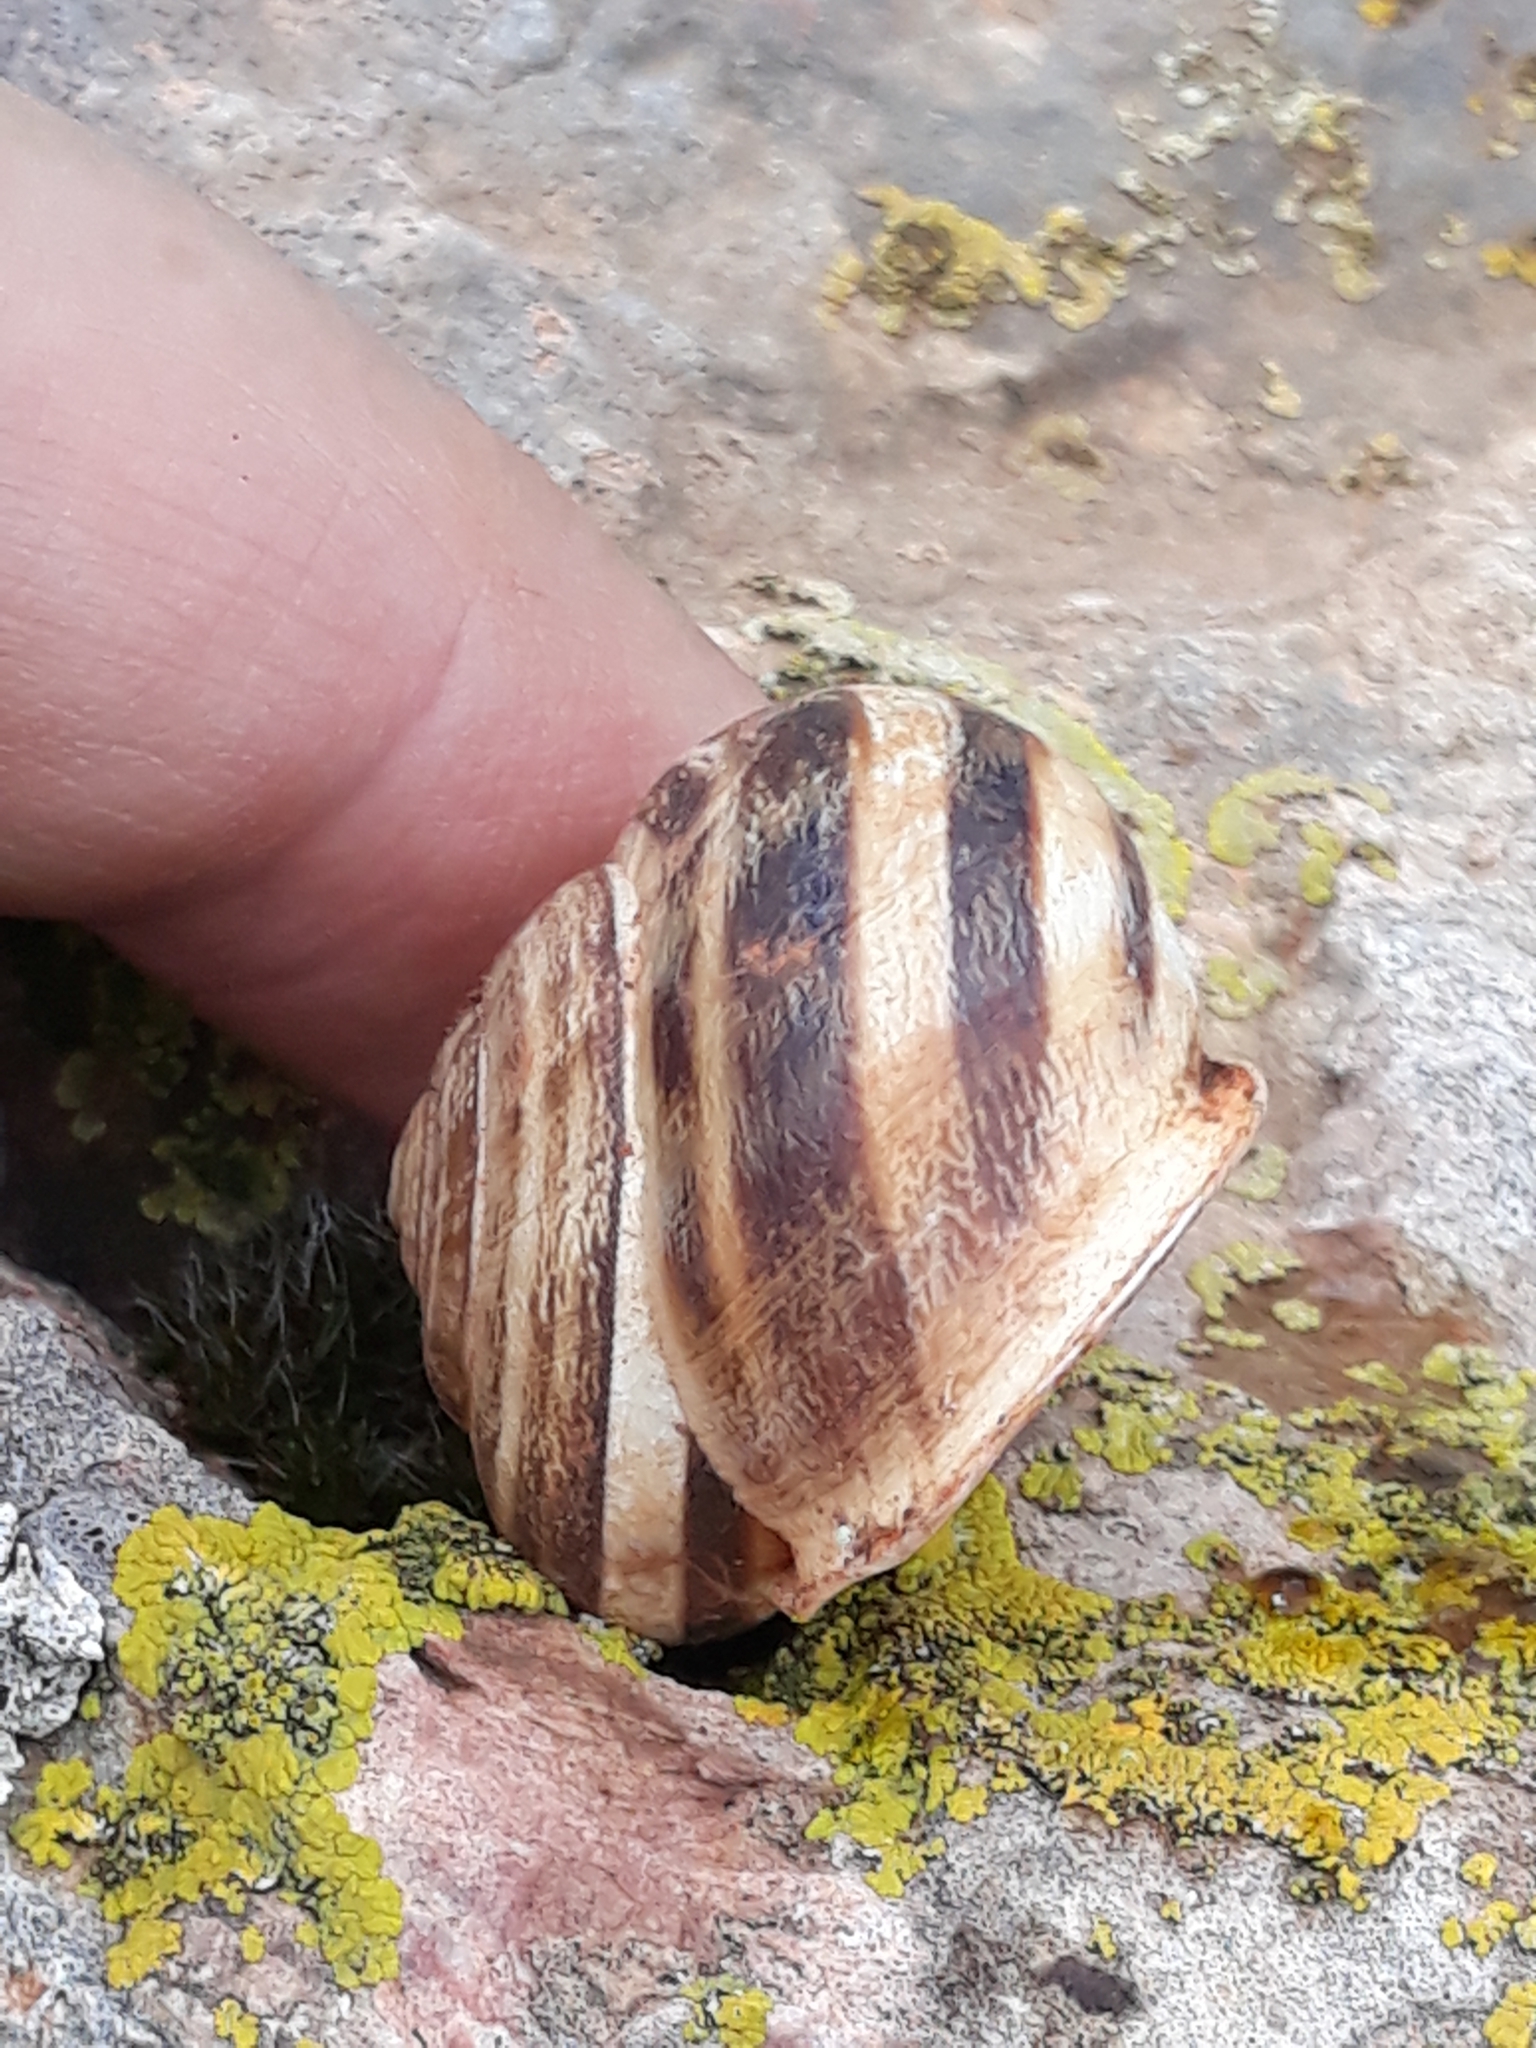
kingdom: Animalia
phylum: Mollusca
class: Gastropoda
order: Stylommatophora
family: Helicidae
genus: Eobania
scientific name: Eobania vermiculata
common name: Chocolateband snail
